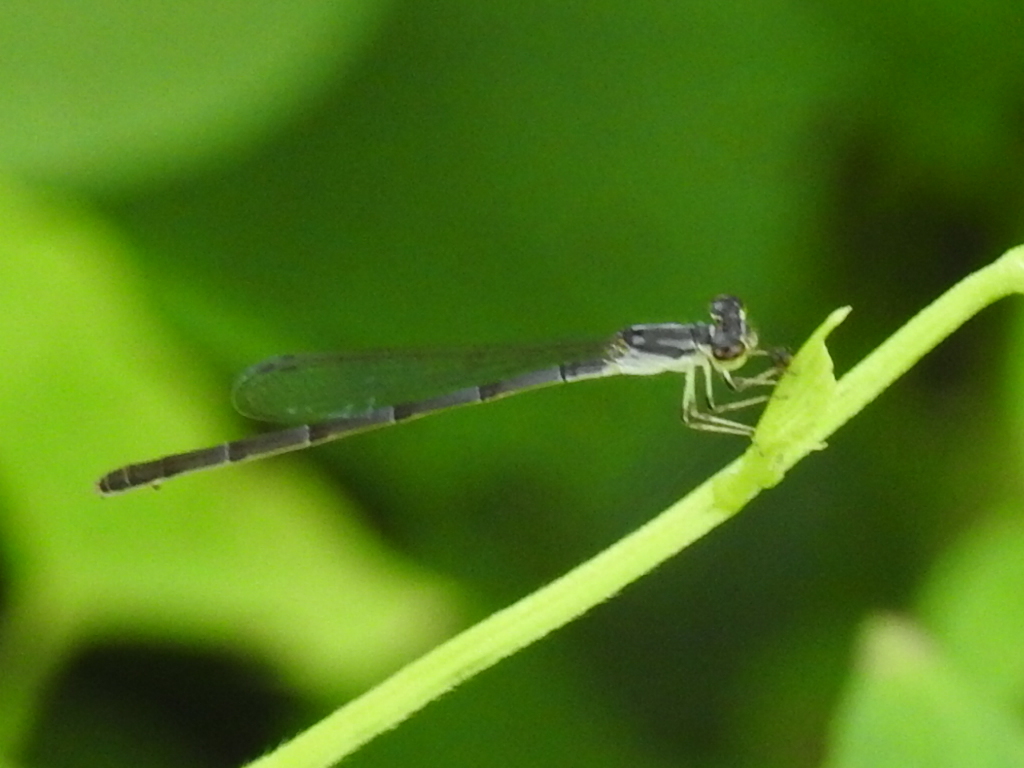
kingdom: Animalia
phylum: Arthropoda
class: Insecta
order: Odonata
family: Coenagrionidae
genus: Ischnura
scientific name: Ischnura posita
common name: Fragile forktail
